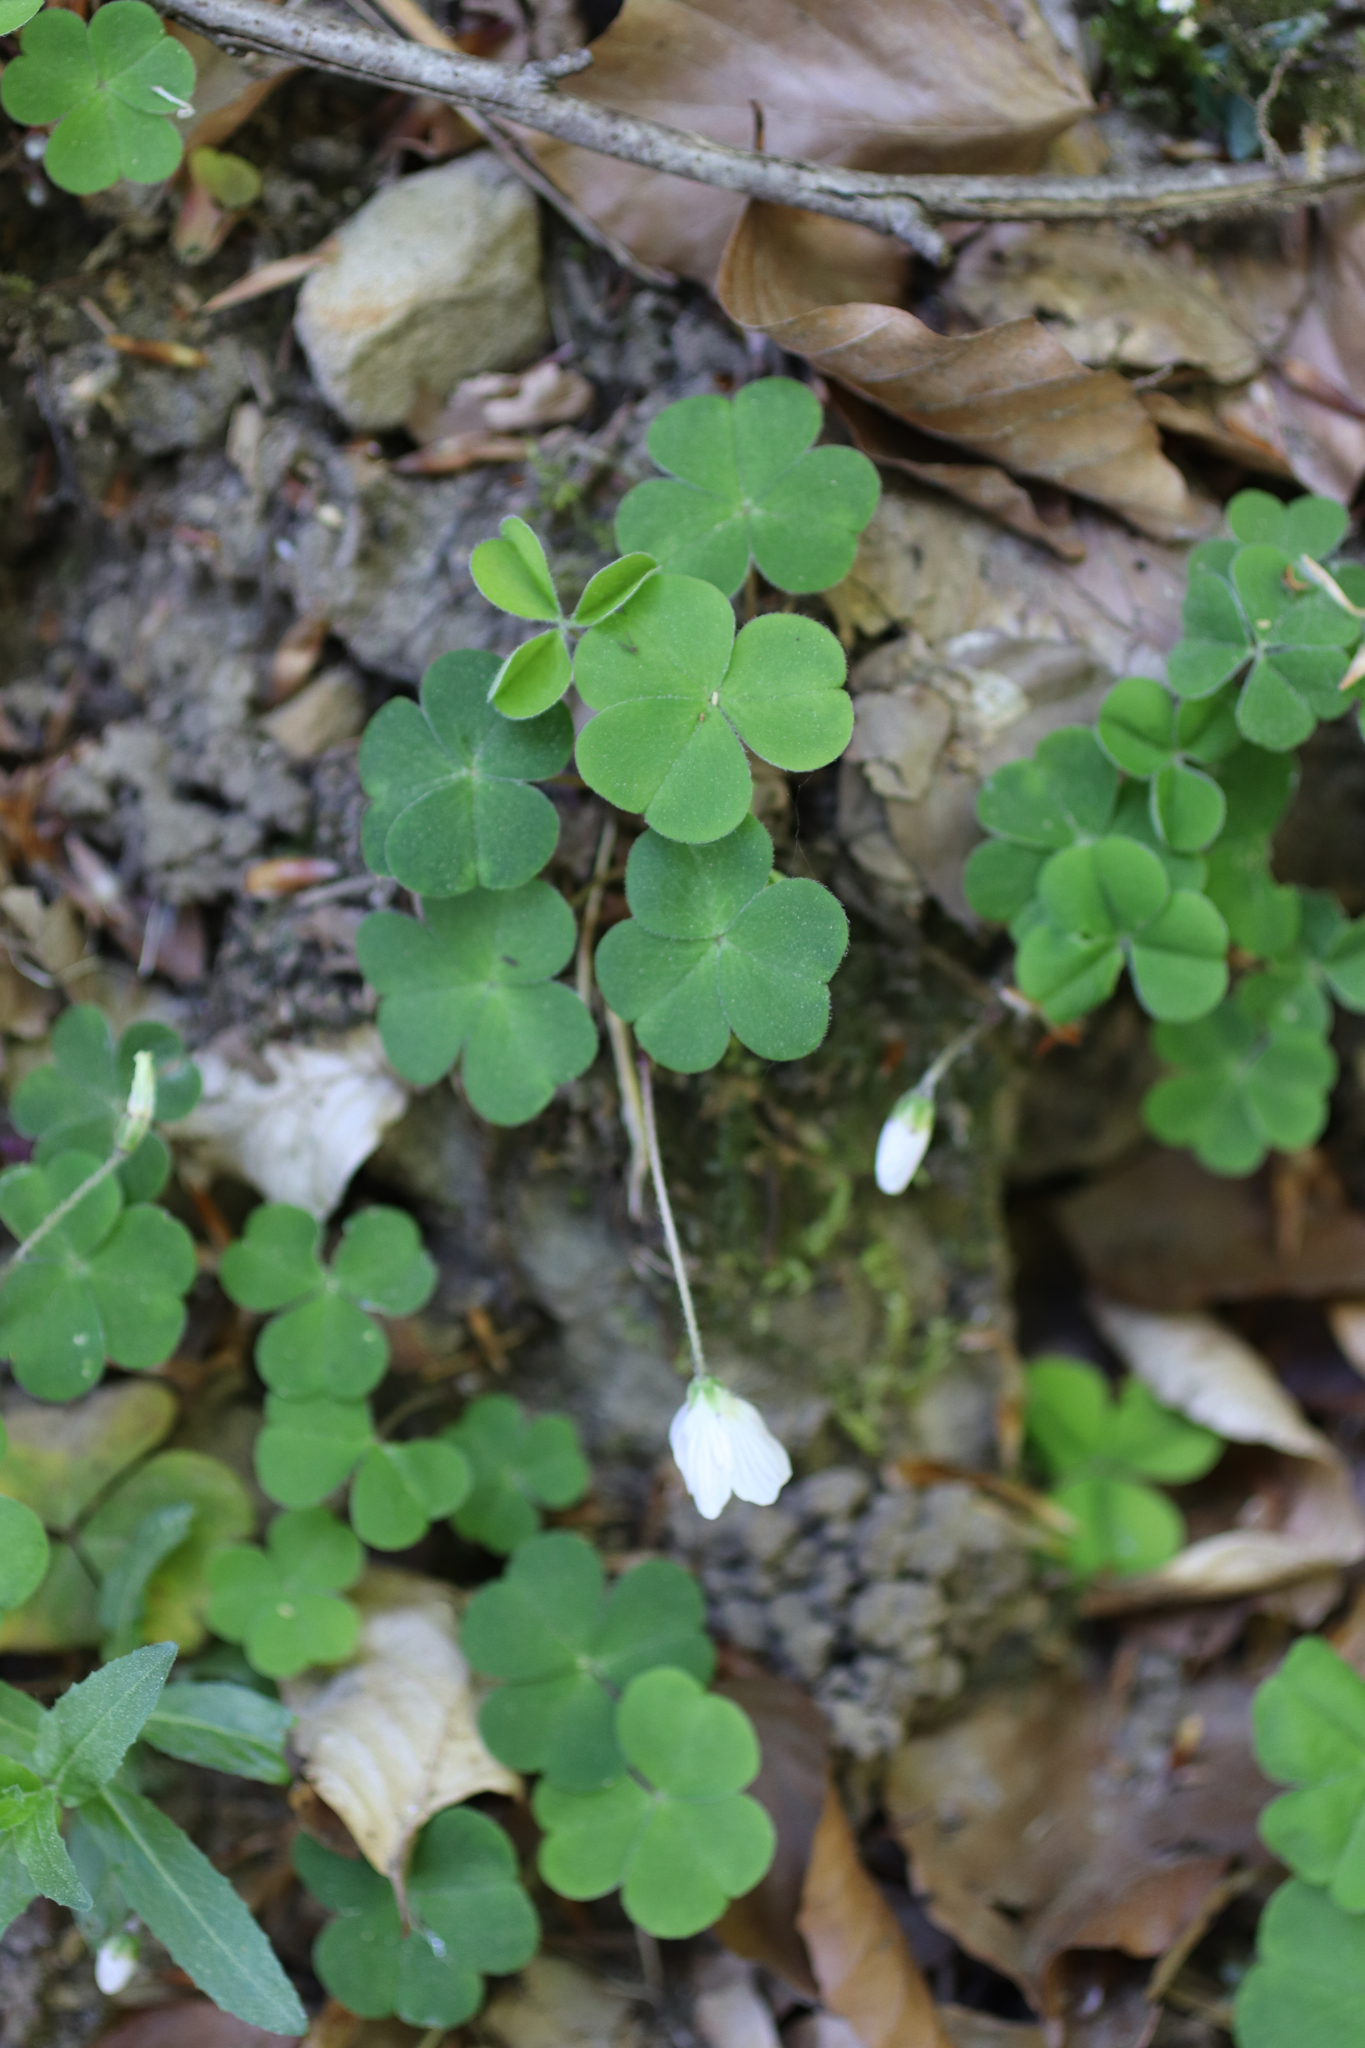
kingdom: Plantae
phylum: Tracheophyta
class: Magnoliopsida
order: Oxalidales
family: Oxalidaceae
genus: Oxalis
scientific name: Oxalis acetosella
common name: Wood-sorrel
